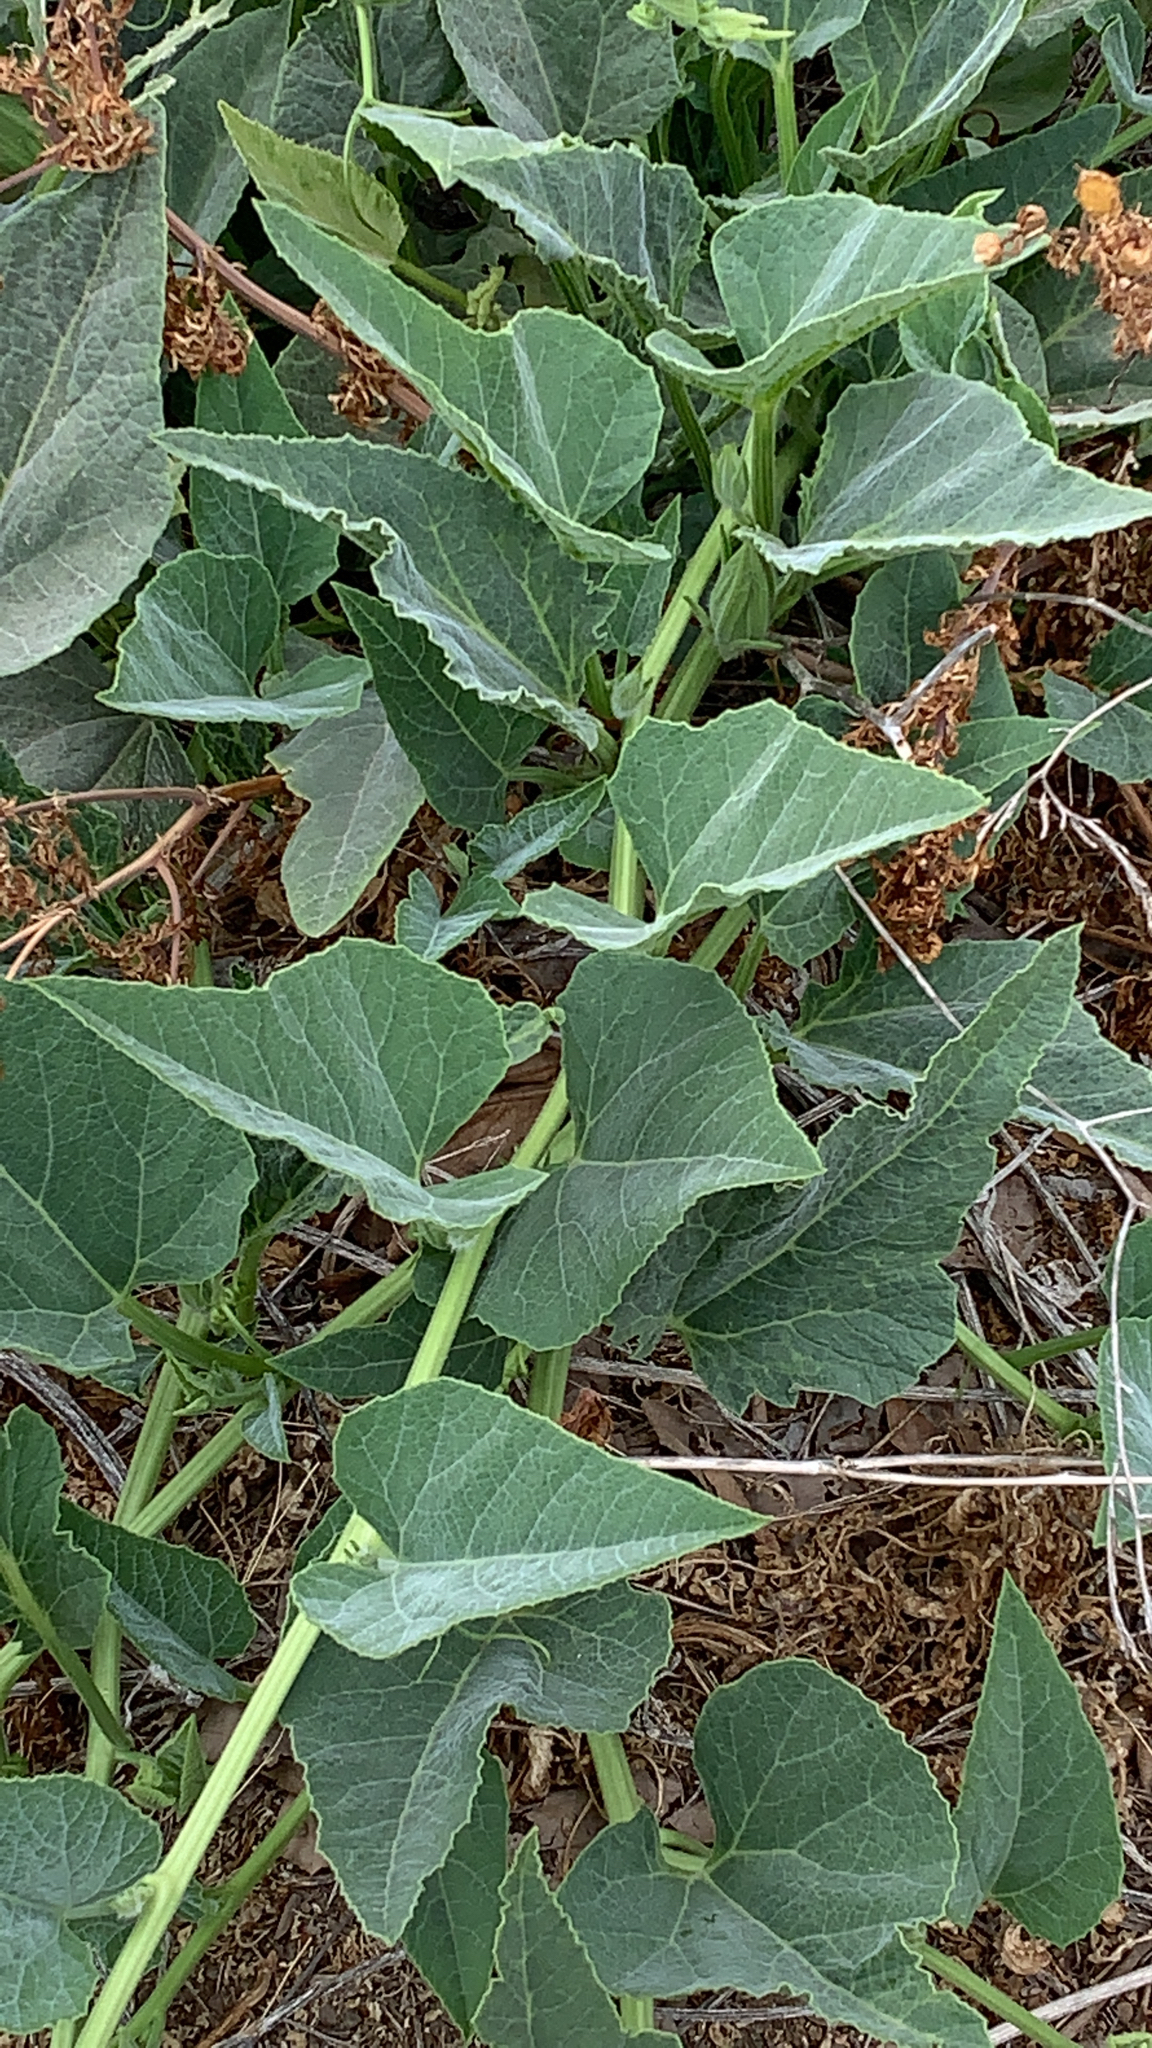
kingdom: Plantae
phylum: Tracheophyta
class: Magnoliopsida
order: Cucurbitales
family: Cucurbitaceae
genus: Cucurbita
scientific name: Cucurbita foetidissima
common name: Buffalo gourd
